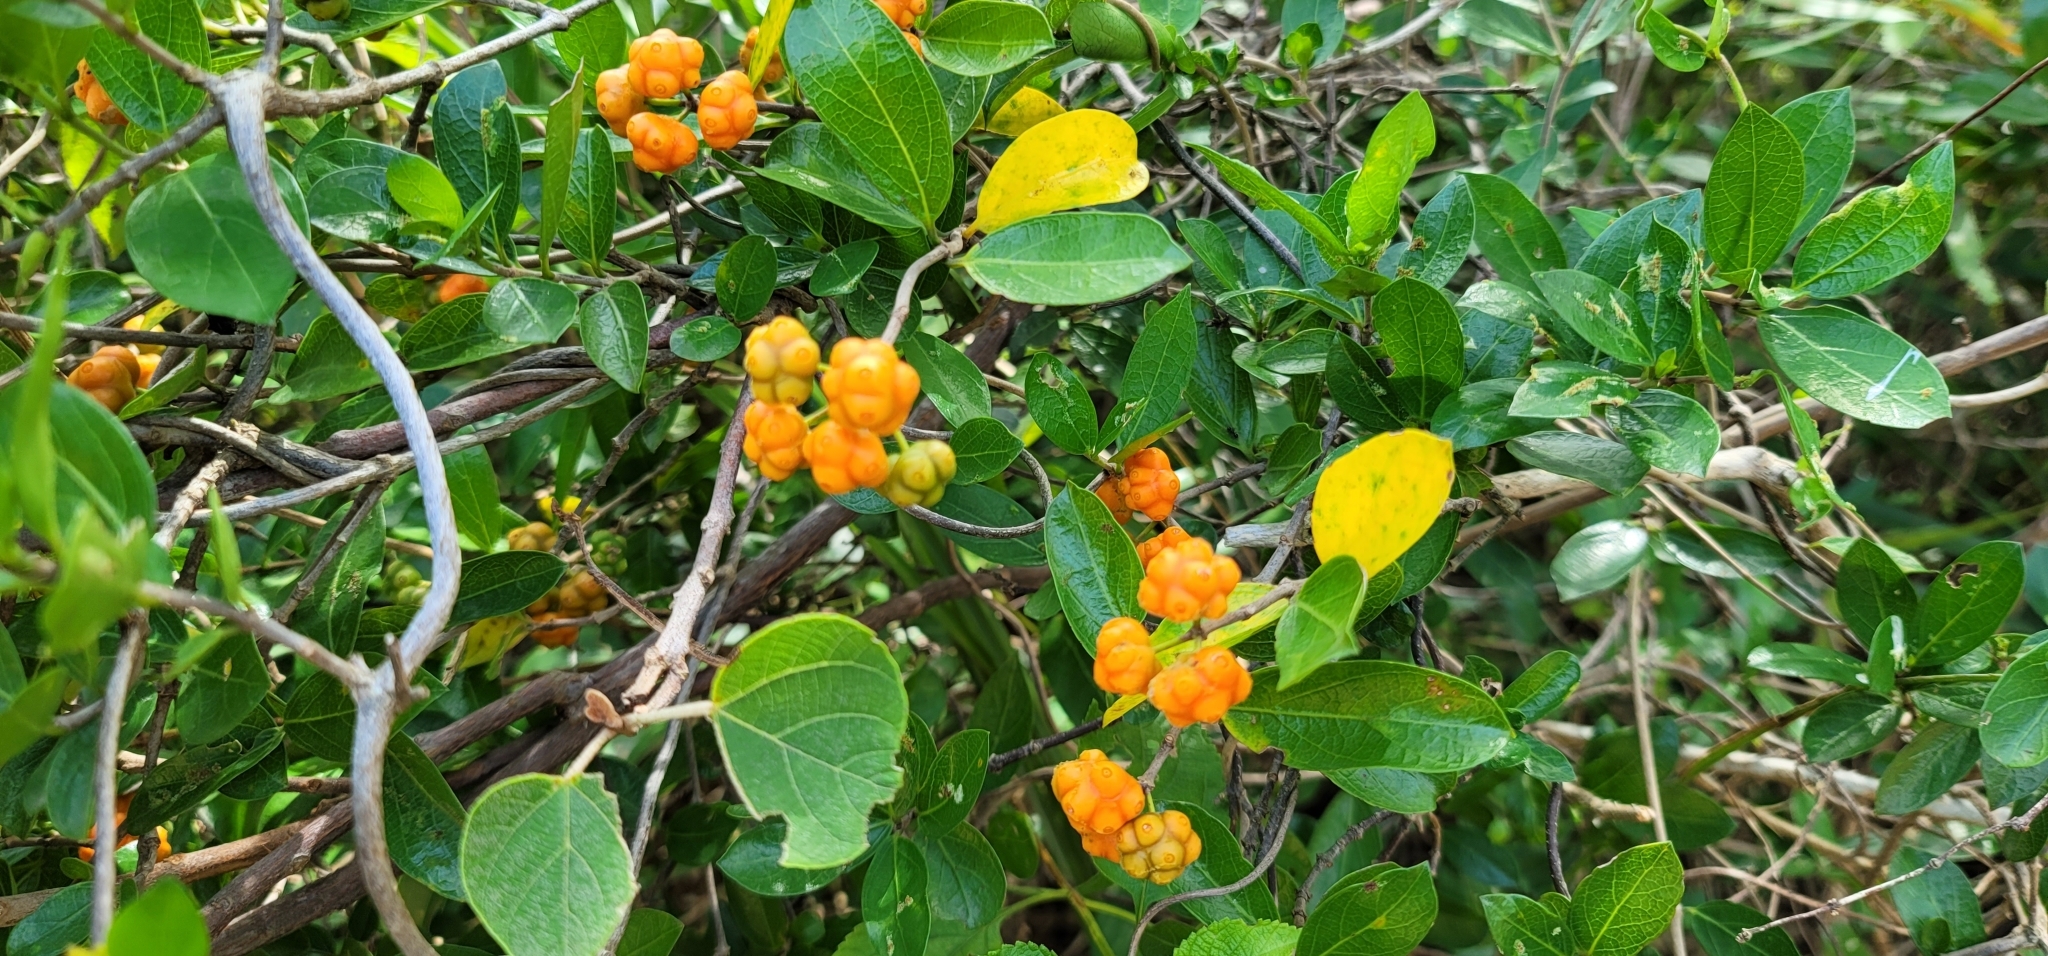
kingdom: Plantae
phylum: Tracheophyta
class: Magnoliopsida
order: Gentianales
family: Rubiaceae
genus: Gynochthodes
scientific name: Gynochthodes parvifolia
